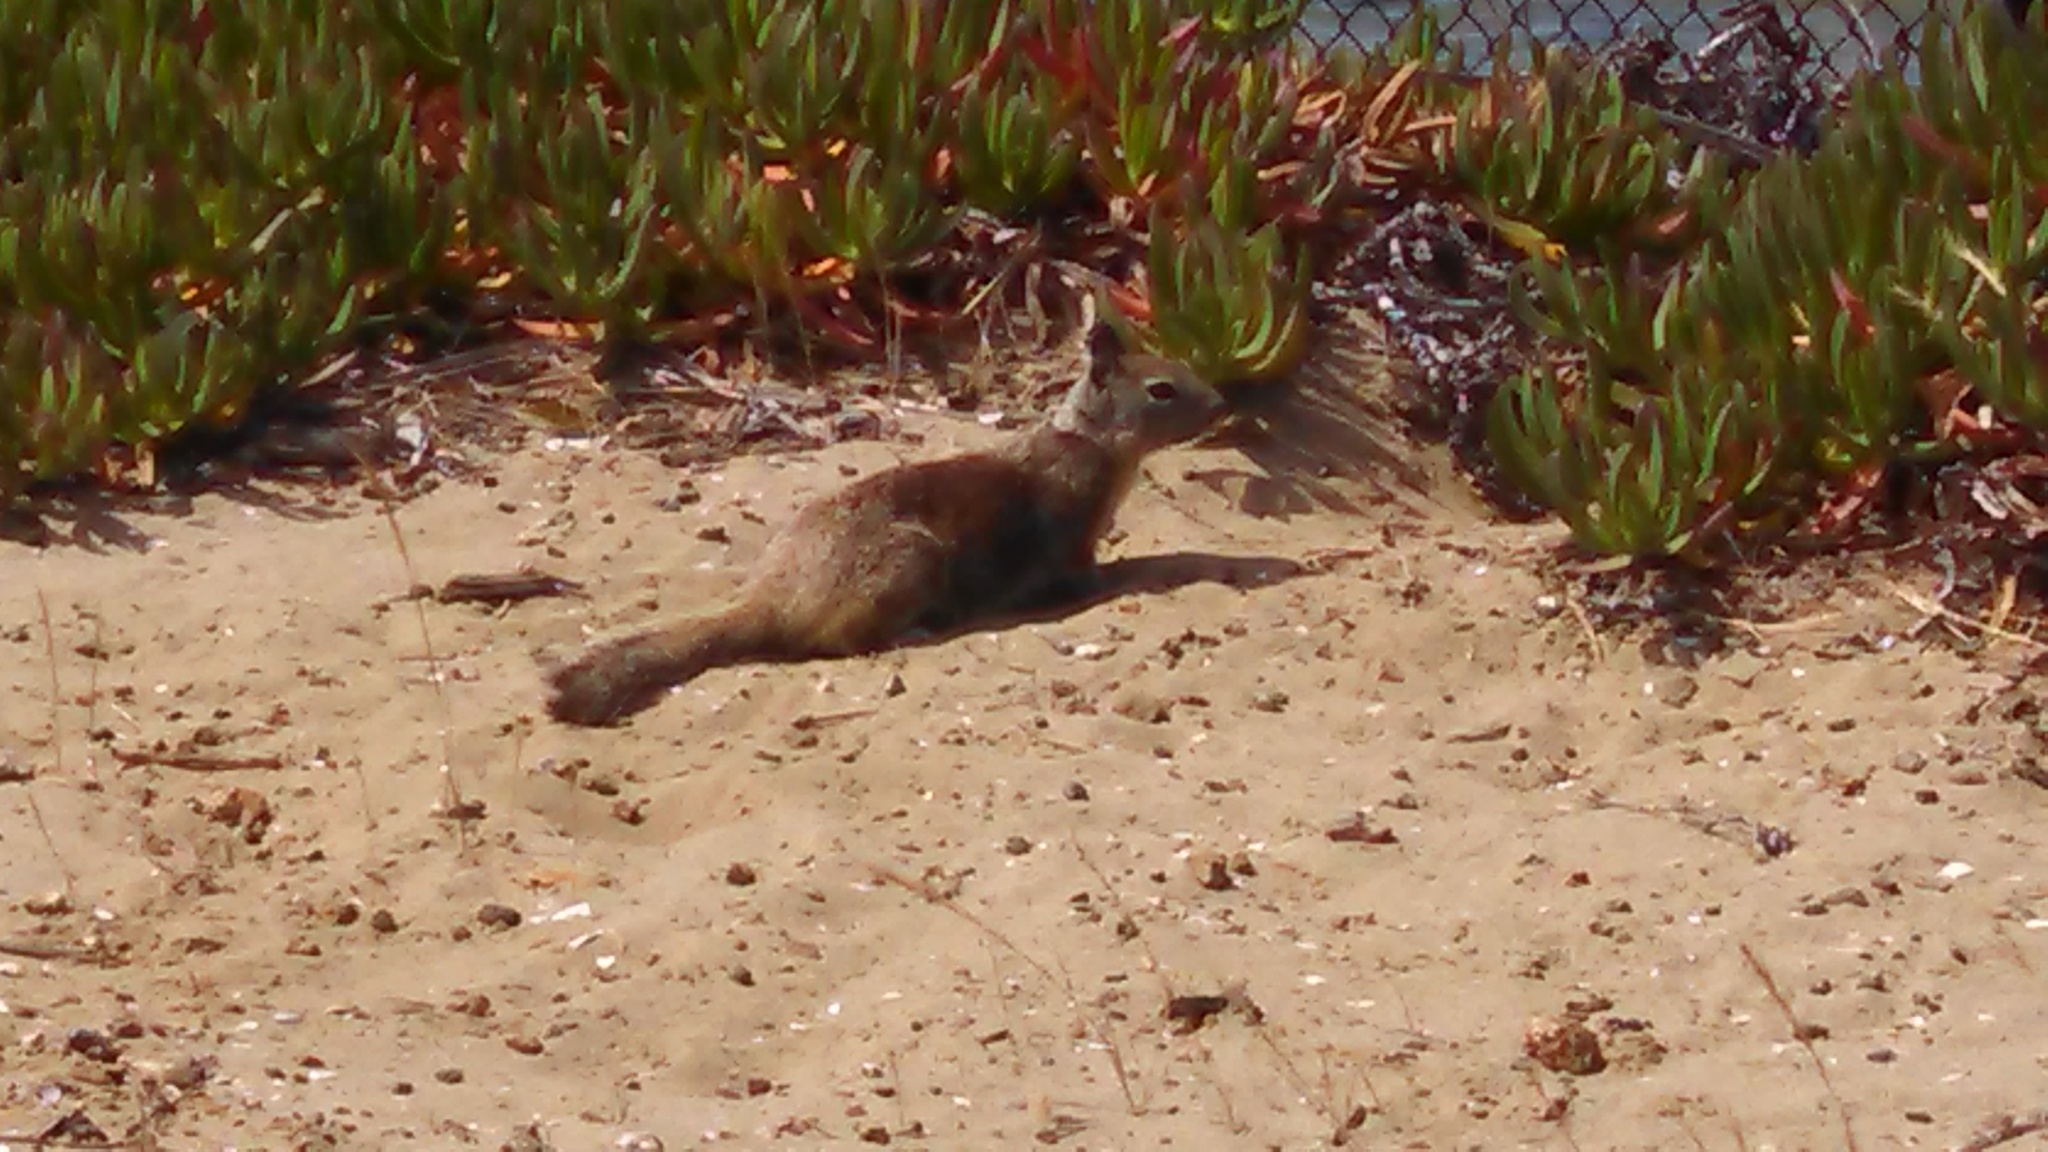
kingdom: Animalia
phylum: Chordata
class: Mammalia
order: Rodentia
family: Sciuridae
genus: Otospermophilus
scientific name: Otospermophilus beecheyi
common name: California ground squirrel
